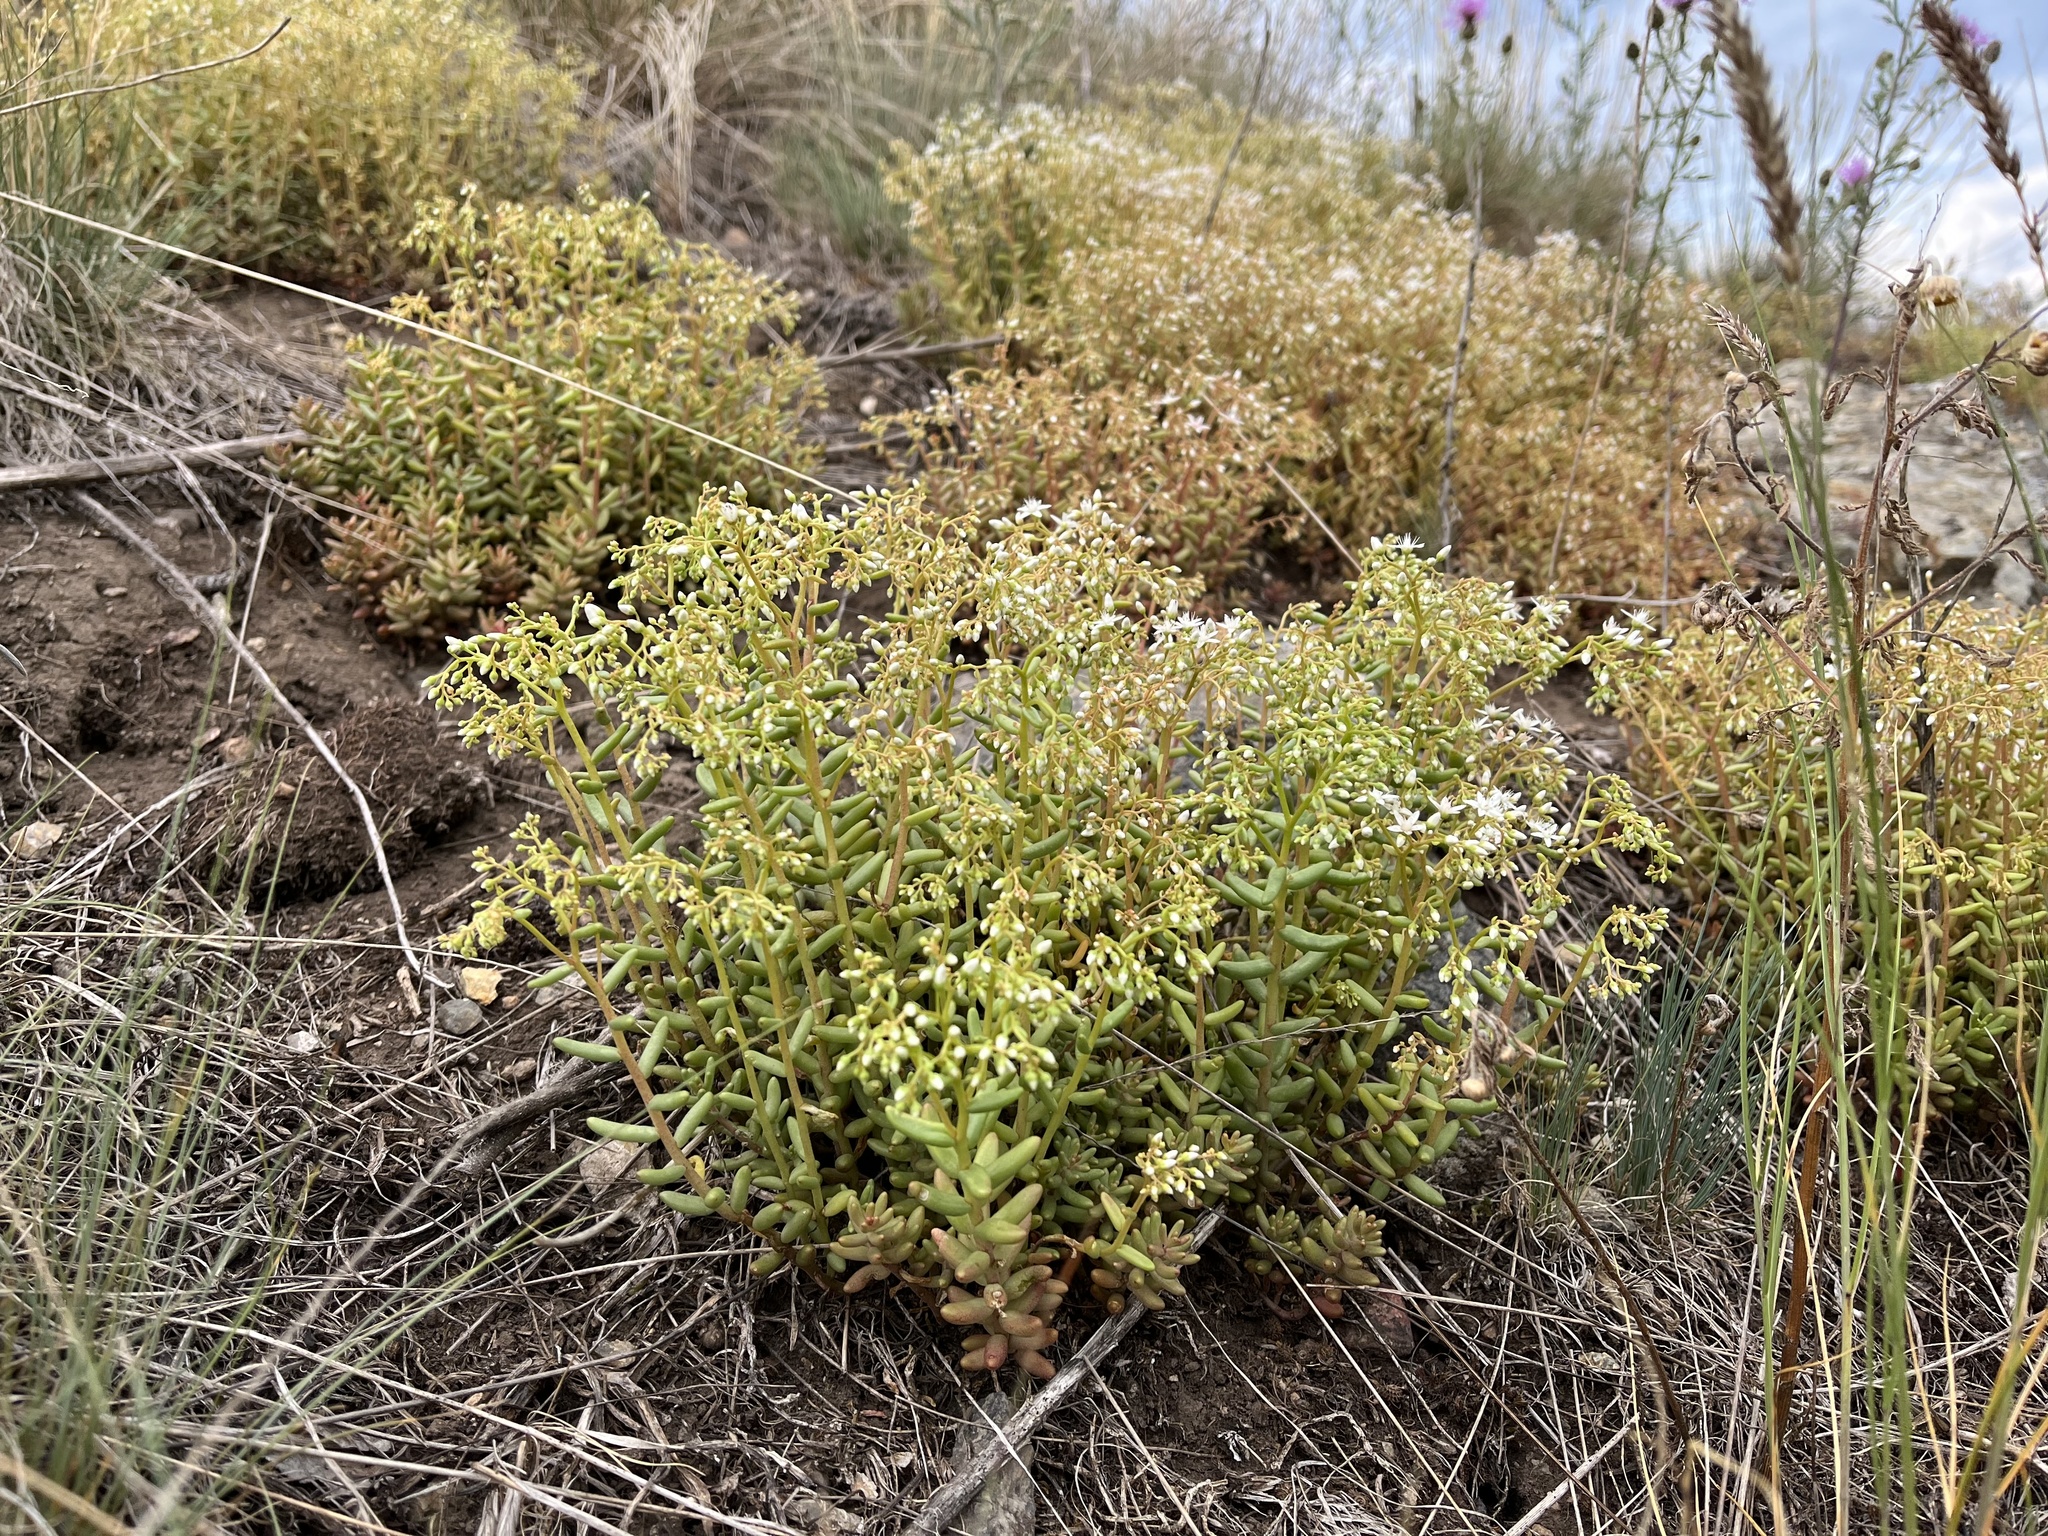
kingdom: Plantae
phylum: Tracheophyta
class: Magnoliopsida
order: Saxifragales
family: Crassulaceae
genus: Sedum
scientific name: Sedum album
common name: White stonecrop
